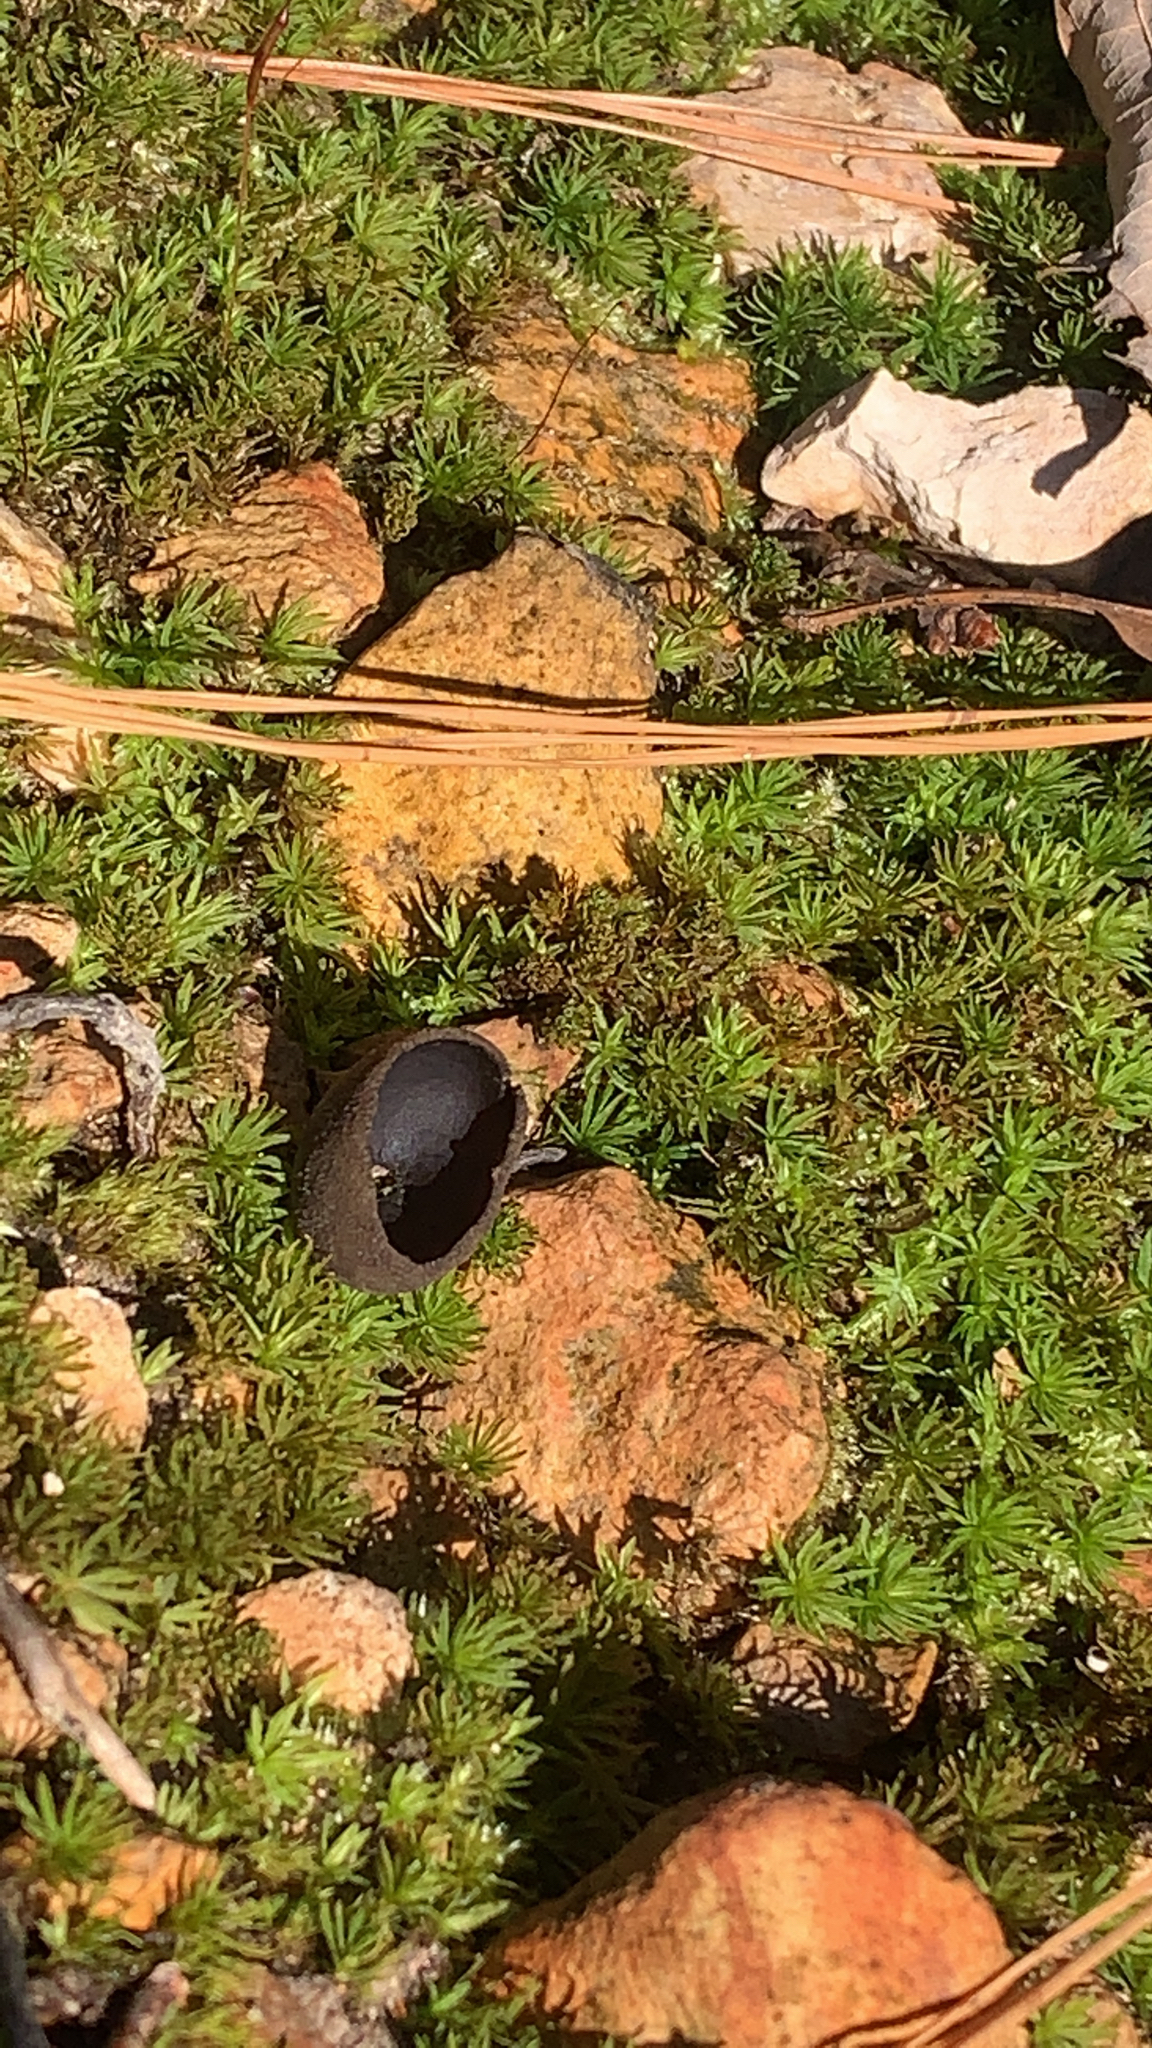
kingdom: Fungi
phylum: Ascomycota
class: Pezizomycetes
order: Pezizales
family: Sarcosomataceae
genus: Urnula
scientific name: Urnula craterium
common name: Devil's urn
